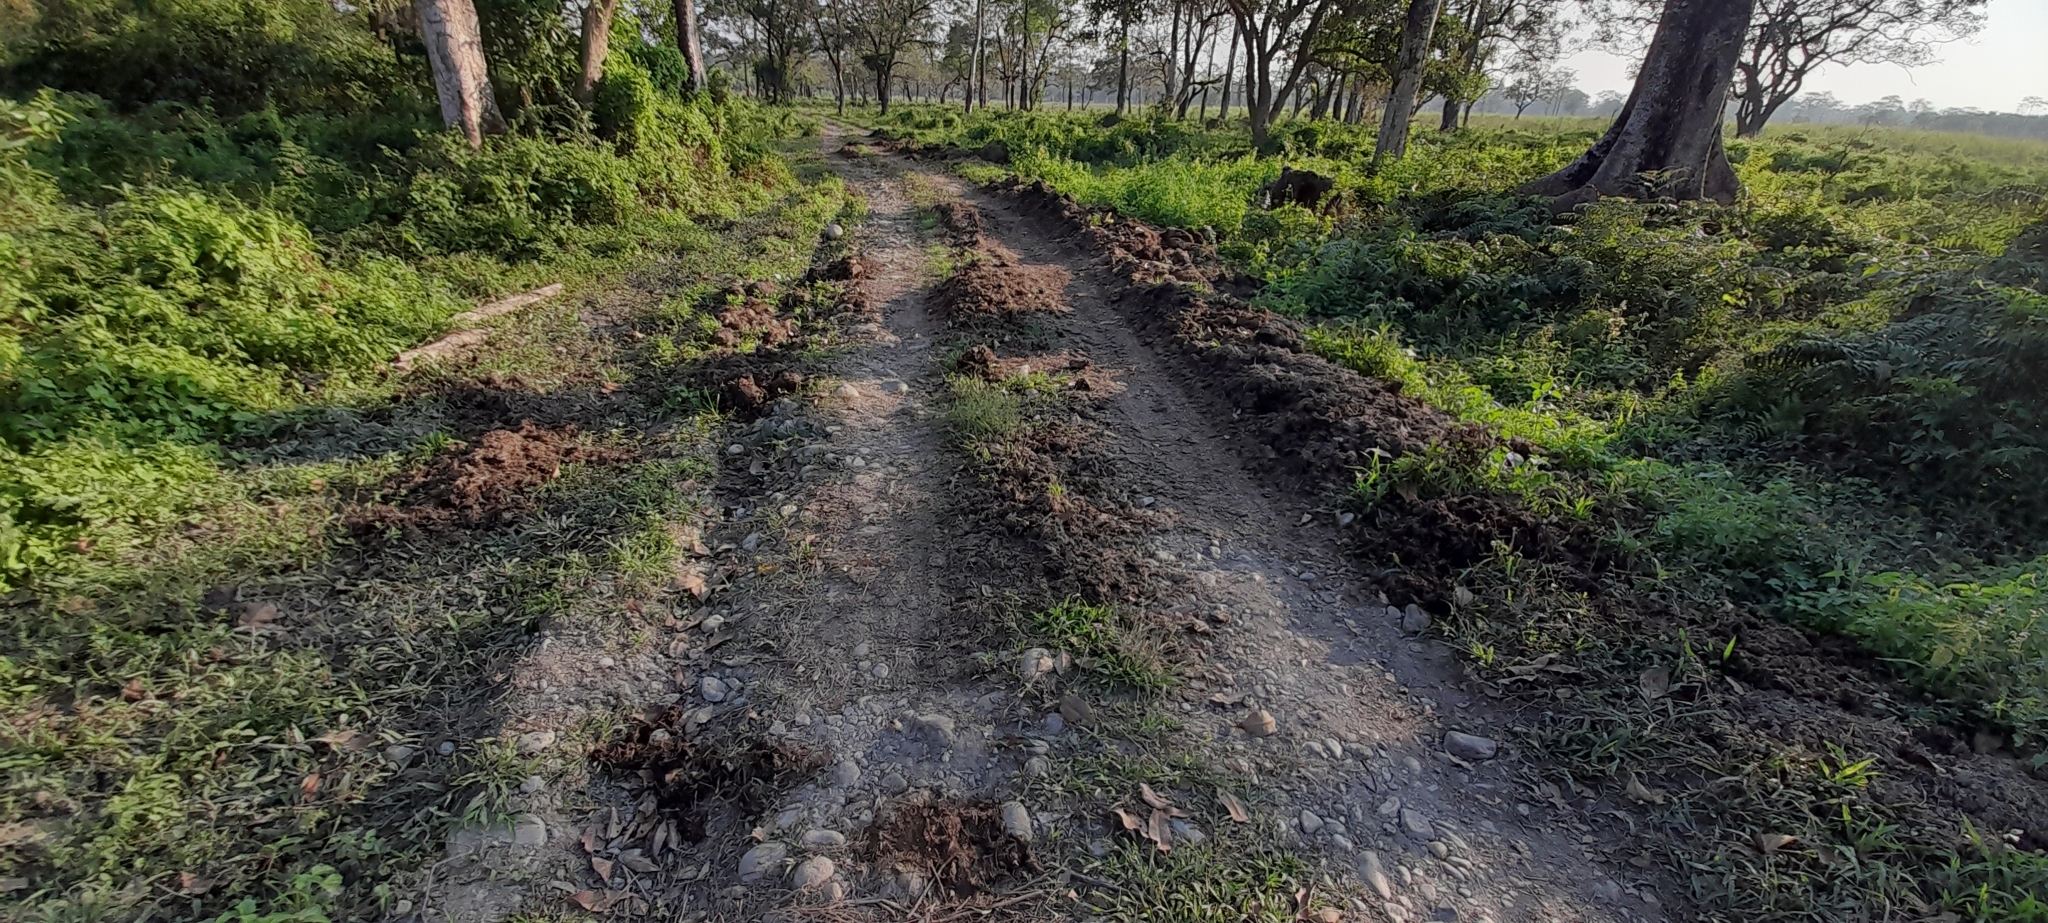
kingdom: Animalia
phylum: Chordata
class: Mammalia
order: Perissodactyla
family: Rhinocerotidae
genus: Rhinoceros
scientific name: Rhinoceros unicornis
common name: Indian rhinoceros
